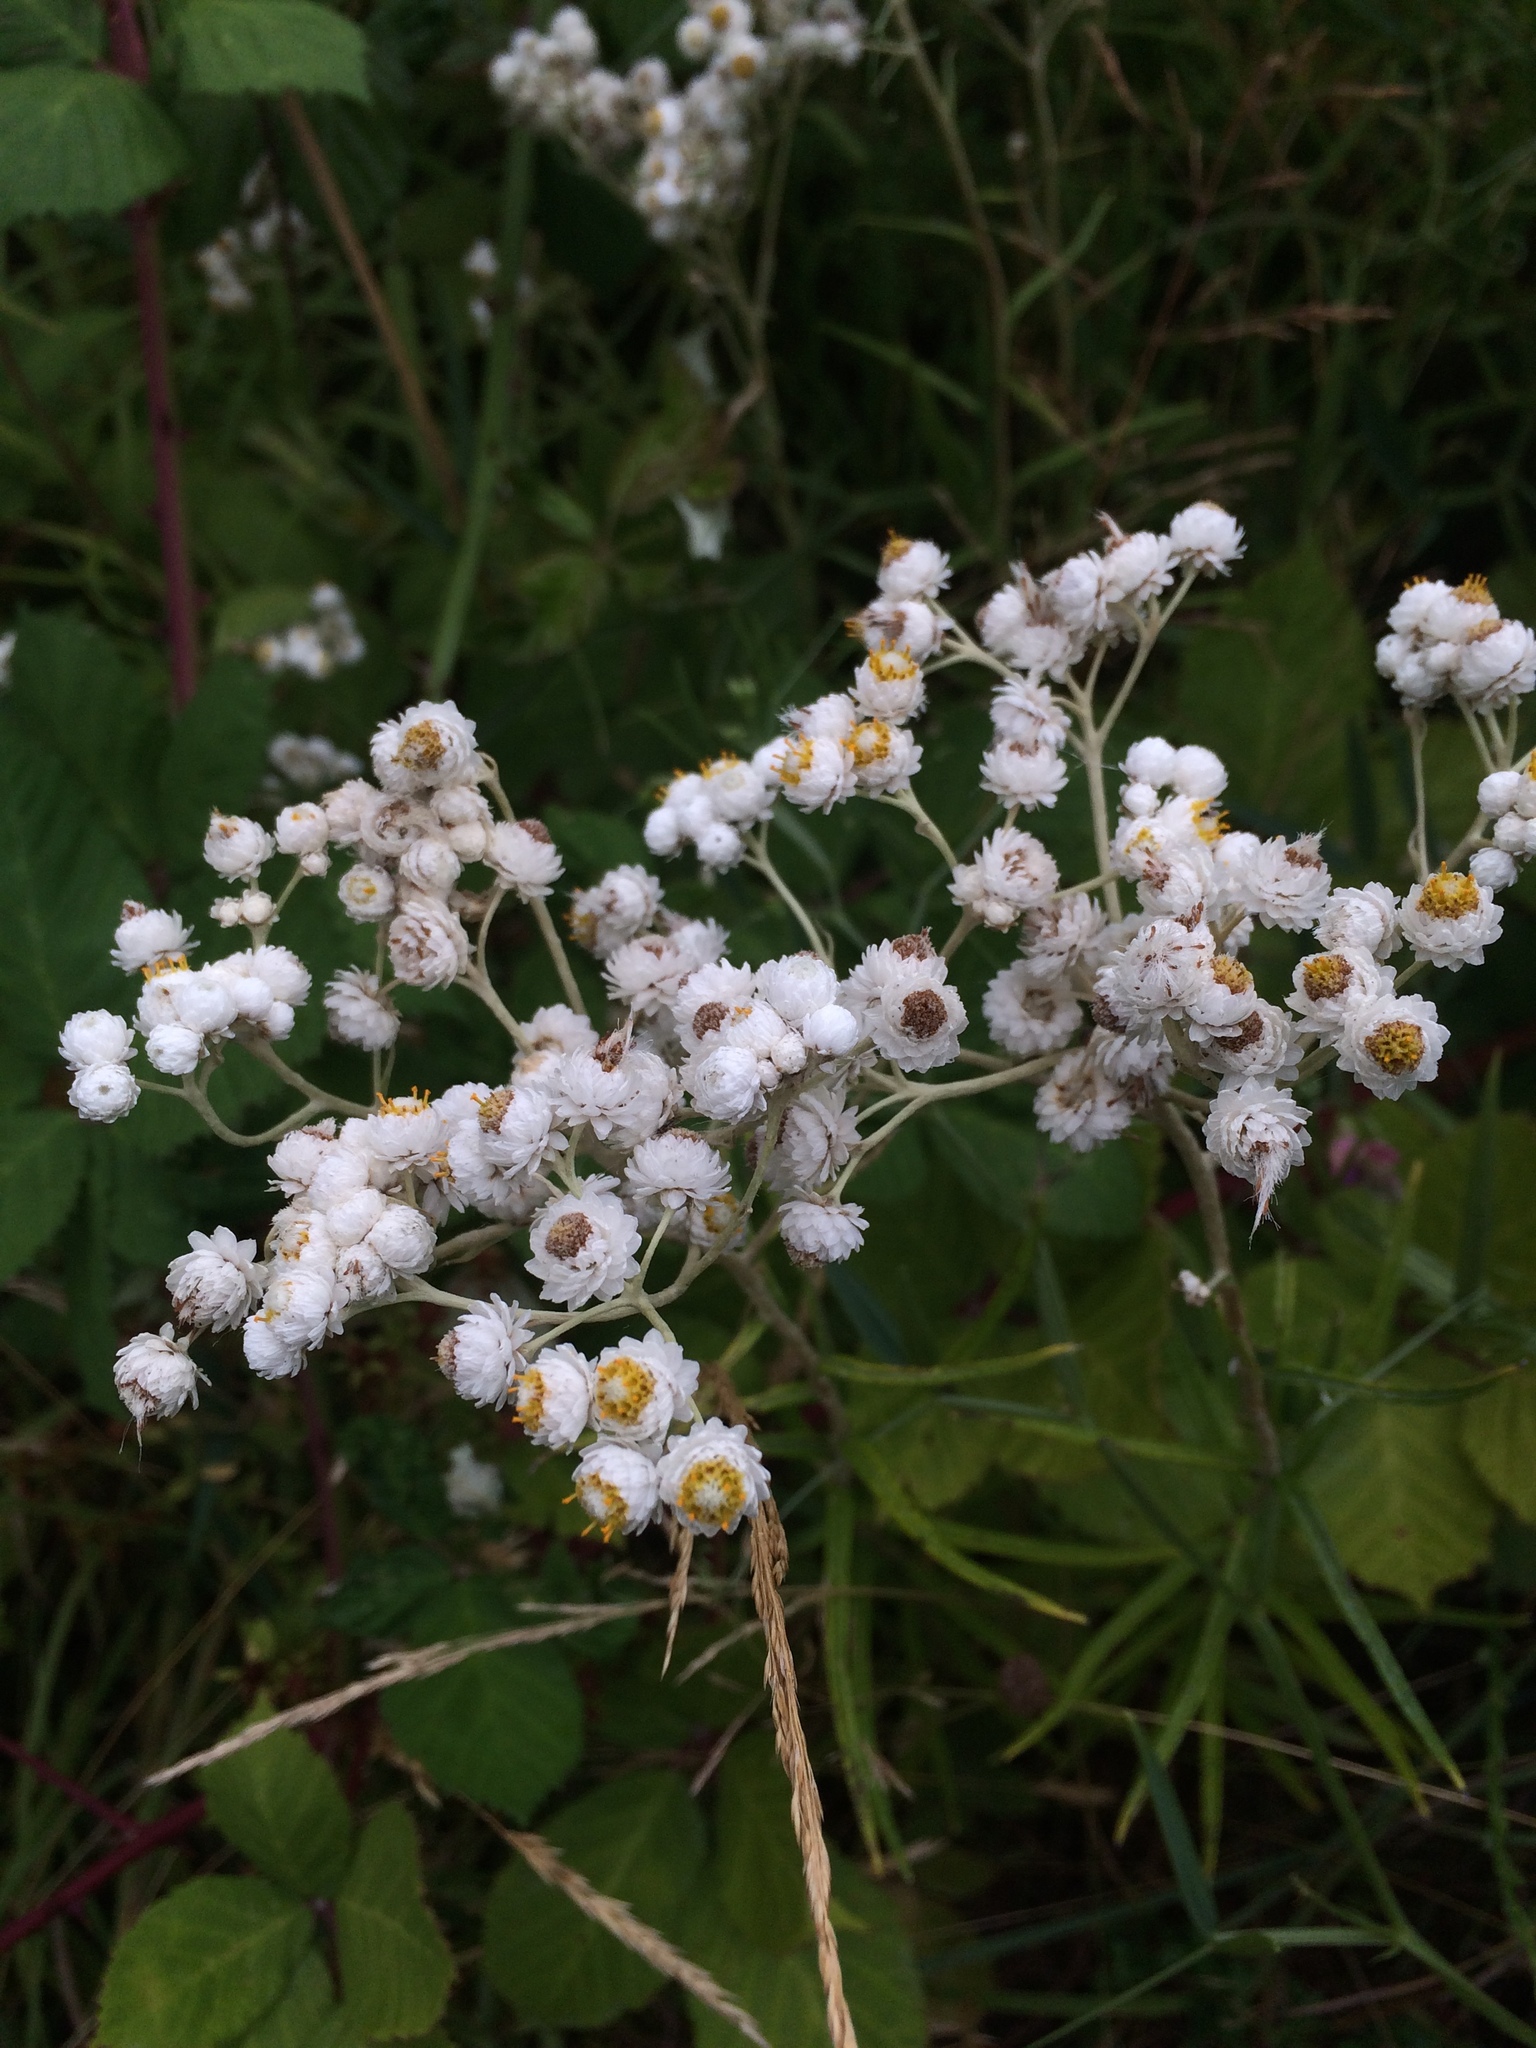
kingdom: Plantae
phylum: Tracheophyta
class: Magnoliopsida
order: Asterales
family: Asteraceae
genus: Anaphalis
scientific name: Anaphalis margaritacea
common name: Pearly everlasting
